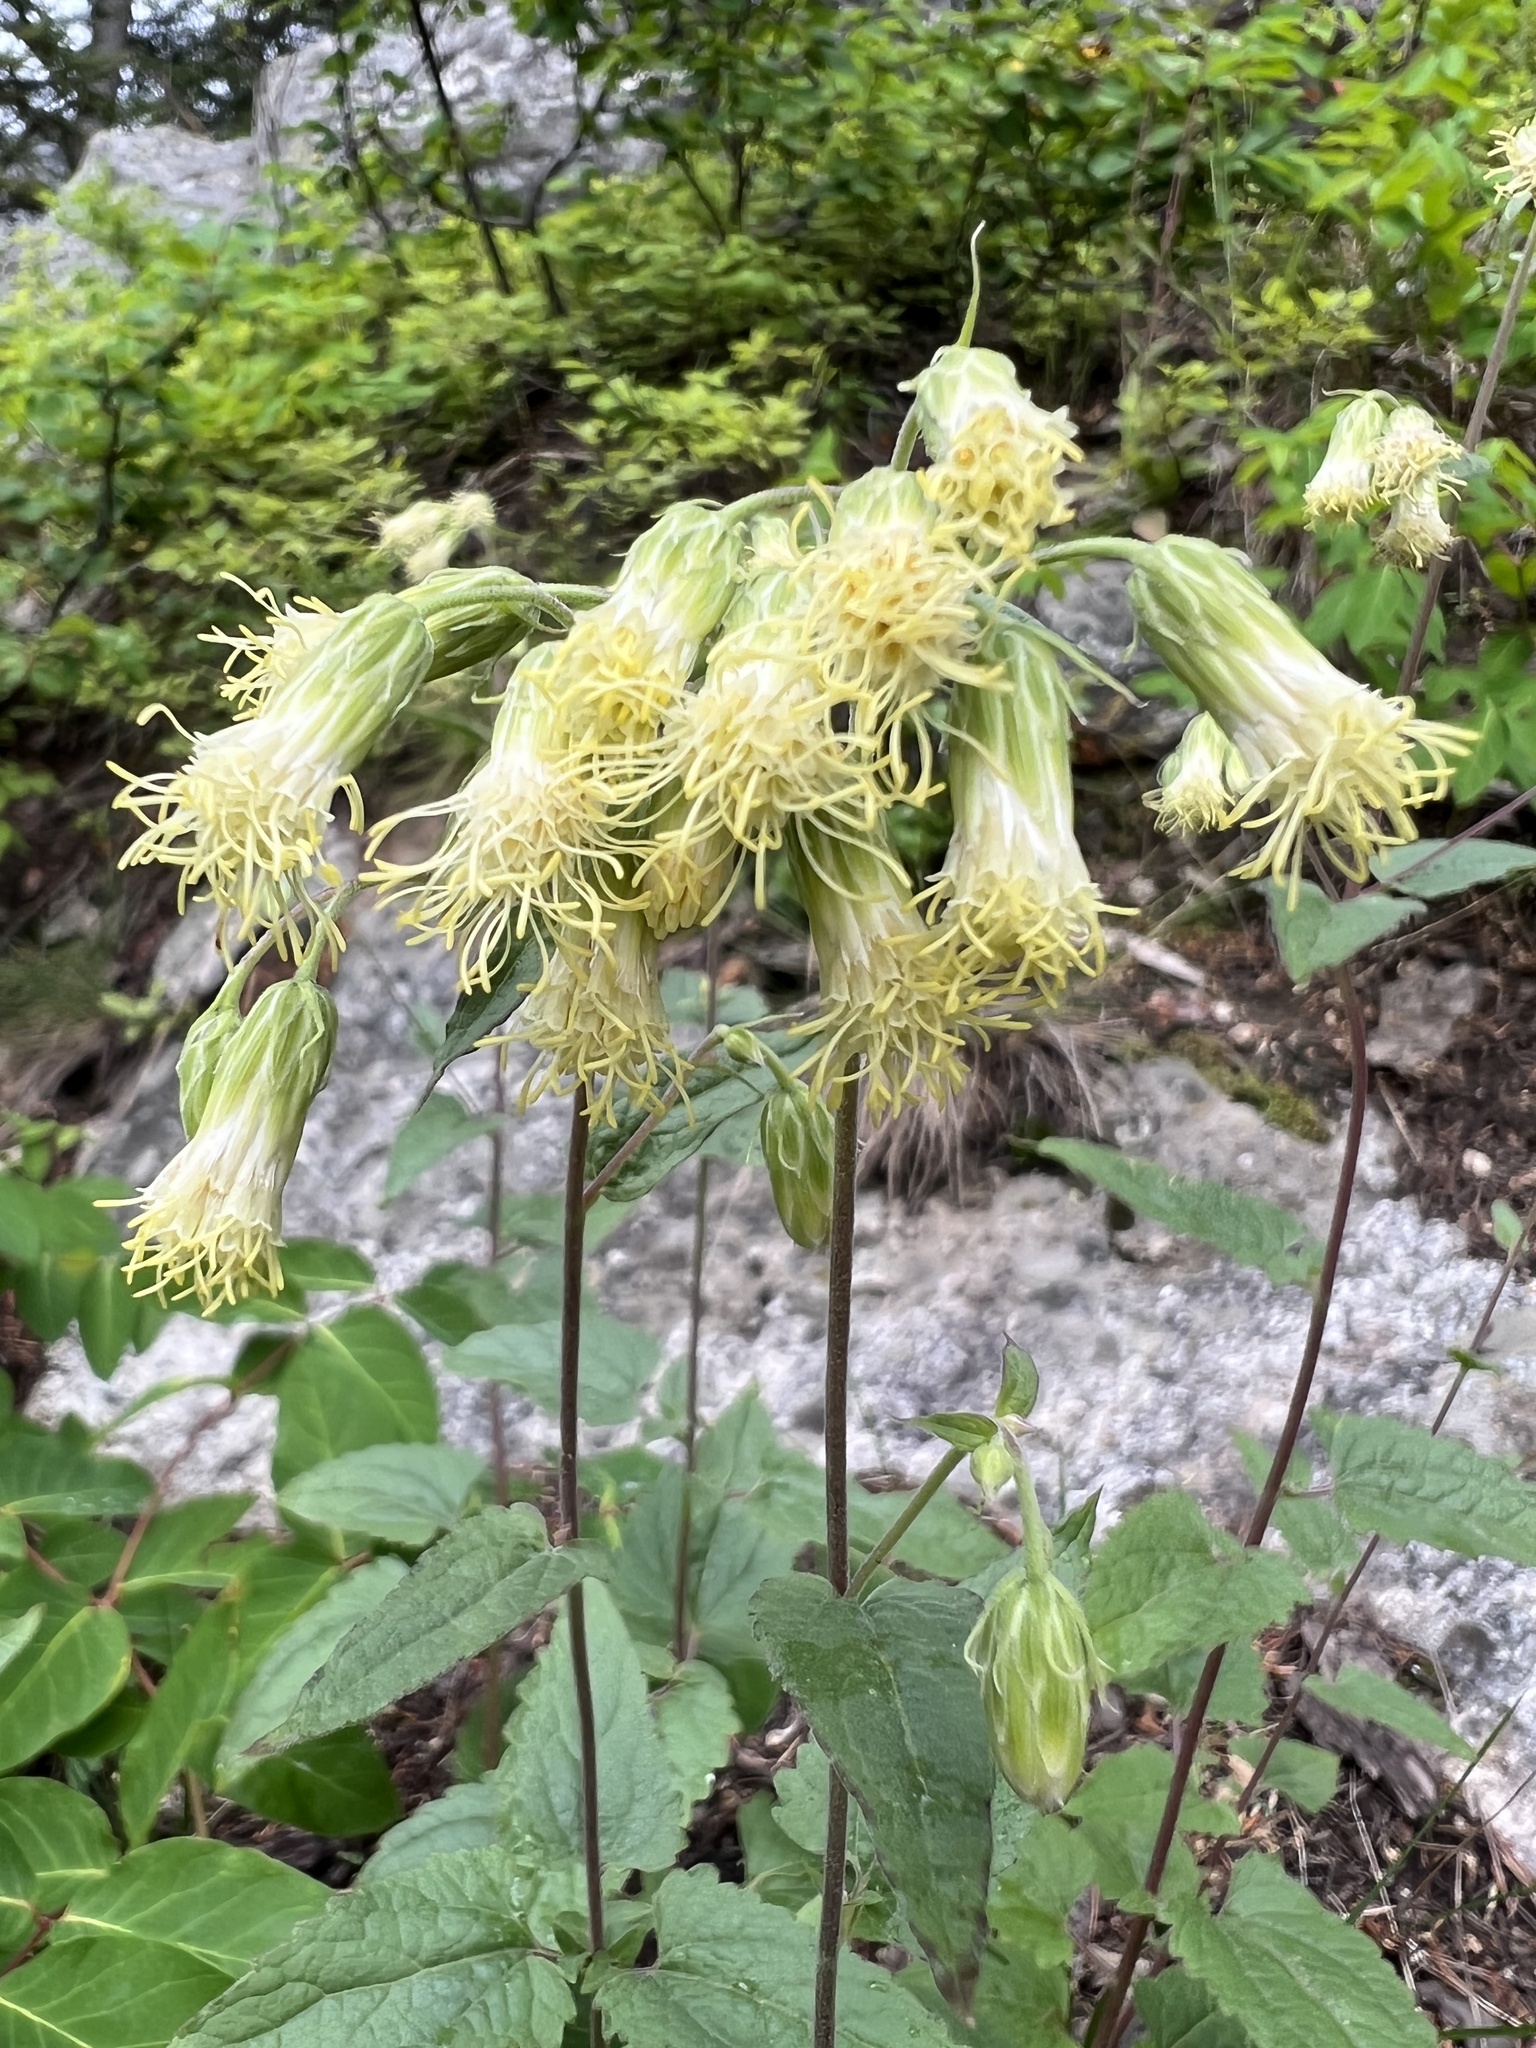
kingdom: Plantae
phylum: Tracheophyta
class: Magnoliopsida
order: Asterales
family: Asteraceae
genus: Brickellia
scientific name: Brickellia grandiflora
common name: Large-flowered brickellia
